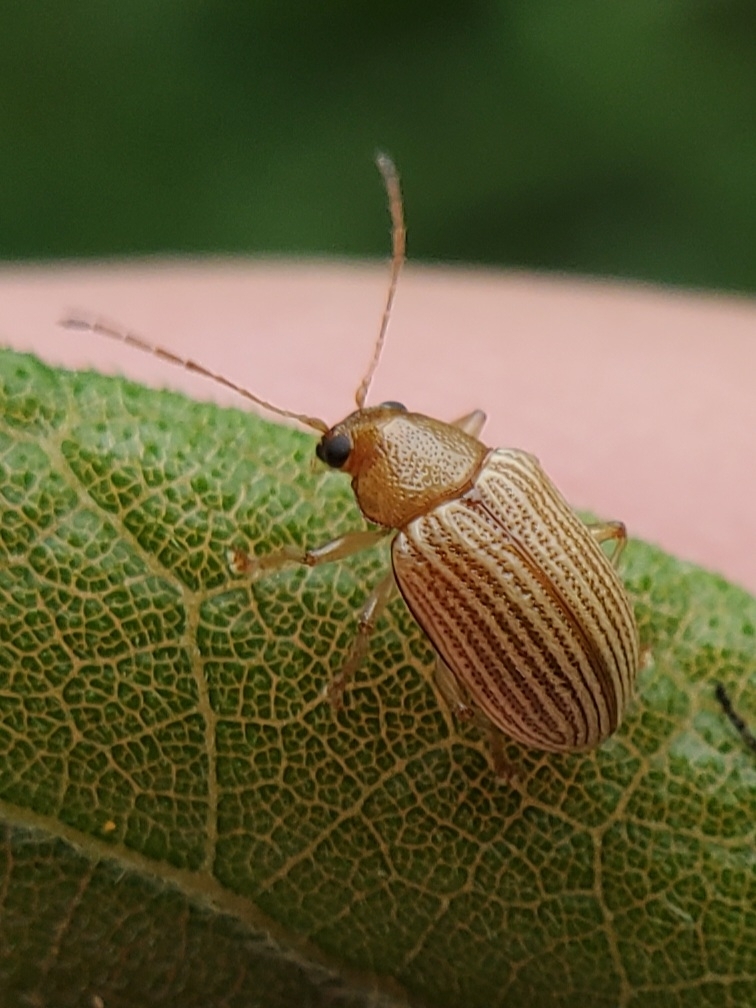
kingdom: Animalia
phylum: Arthropoda
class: Insecta
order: Coleoptera
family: Chrysomelidae
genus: Colaspis
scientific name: Colaspis brunnea
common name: Grape colaspis
